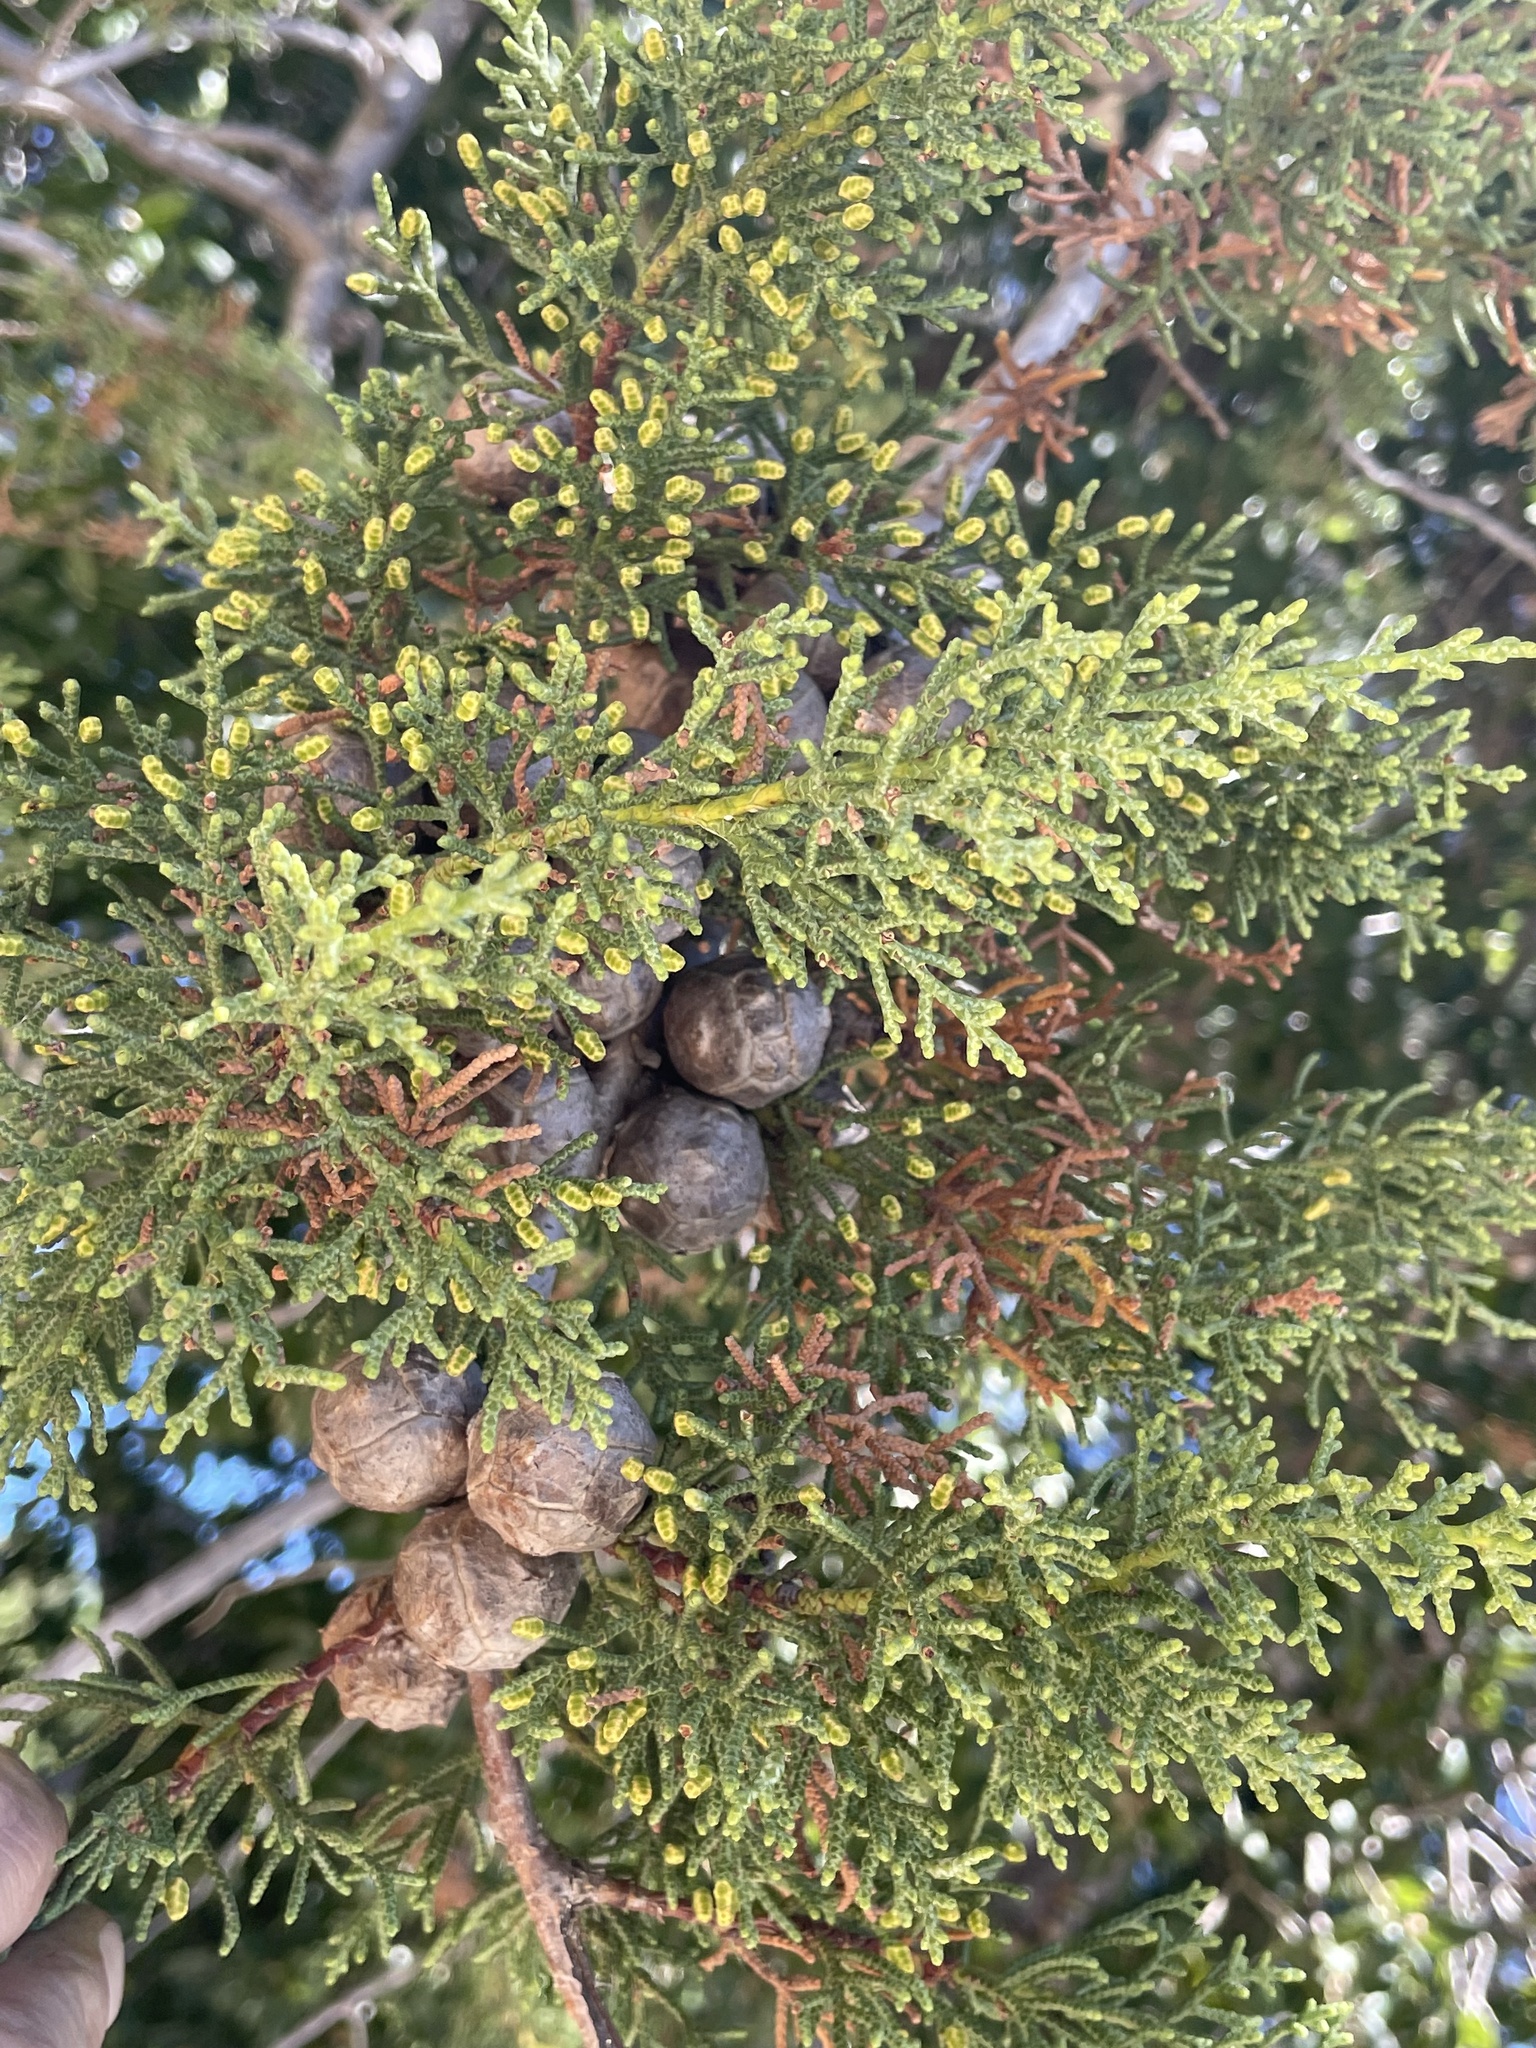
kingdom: Plantae
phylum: Tracheophyta
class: Pinopsida
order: Pinales
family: Cupressaceae
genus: Cupressus
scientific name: Cupressus goveniana
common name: Gowen cypress
